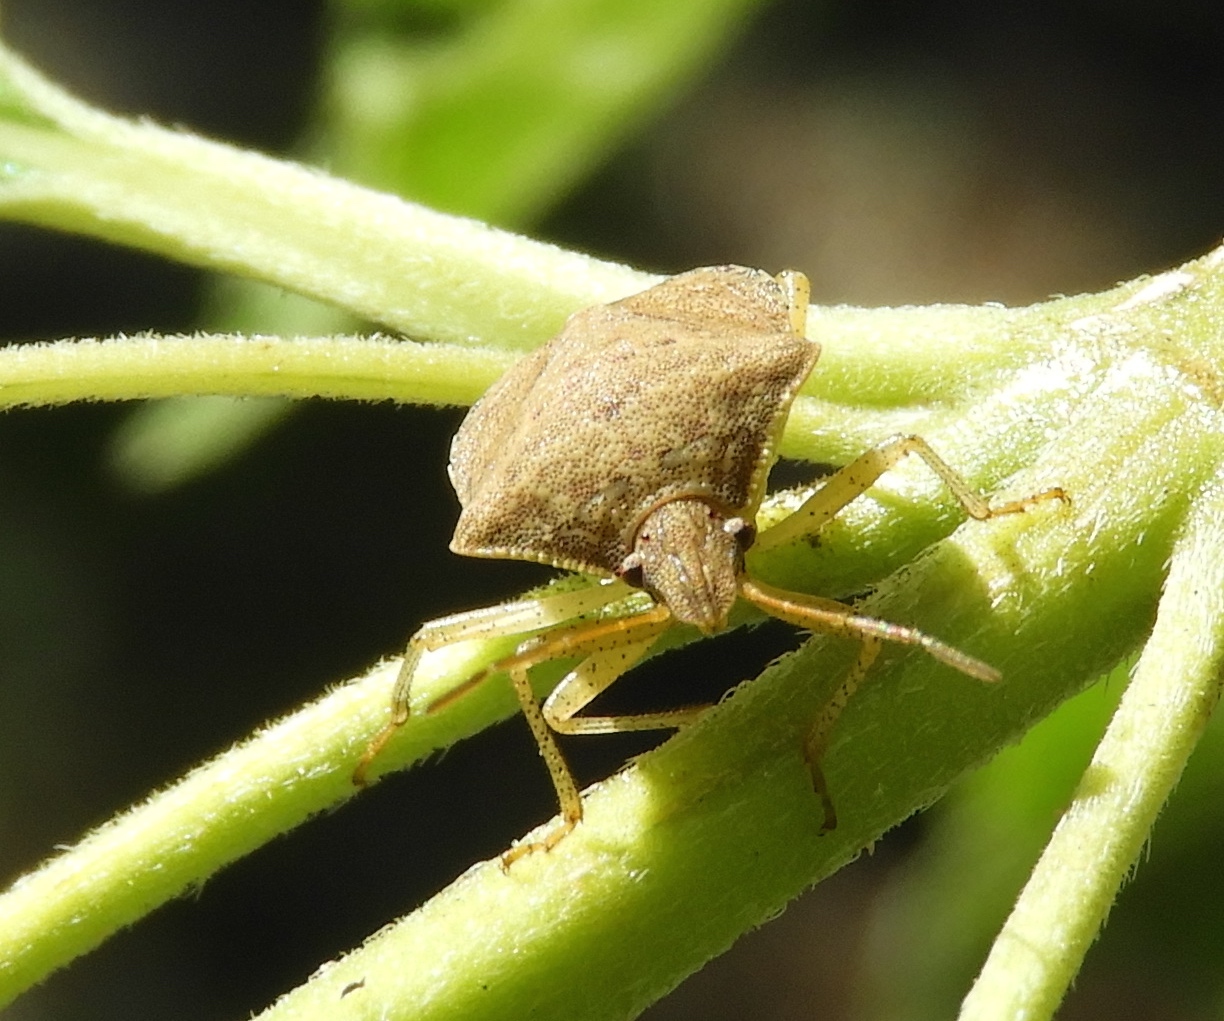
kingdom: Animalia
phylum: Arthropoda
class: Insecta
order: Hemiptera
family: Pentatomidae
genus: Euschistus
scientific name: Euschistus
